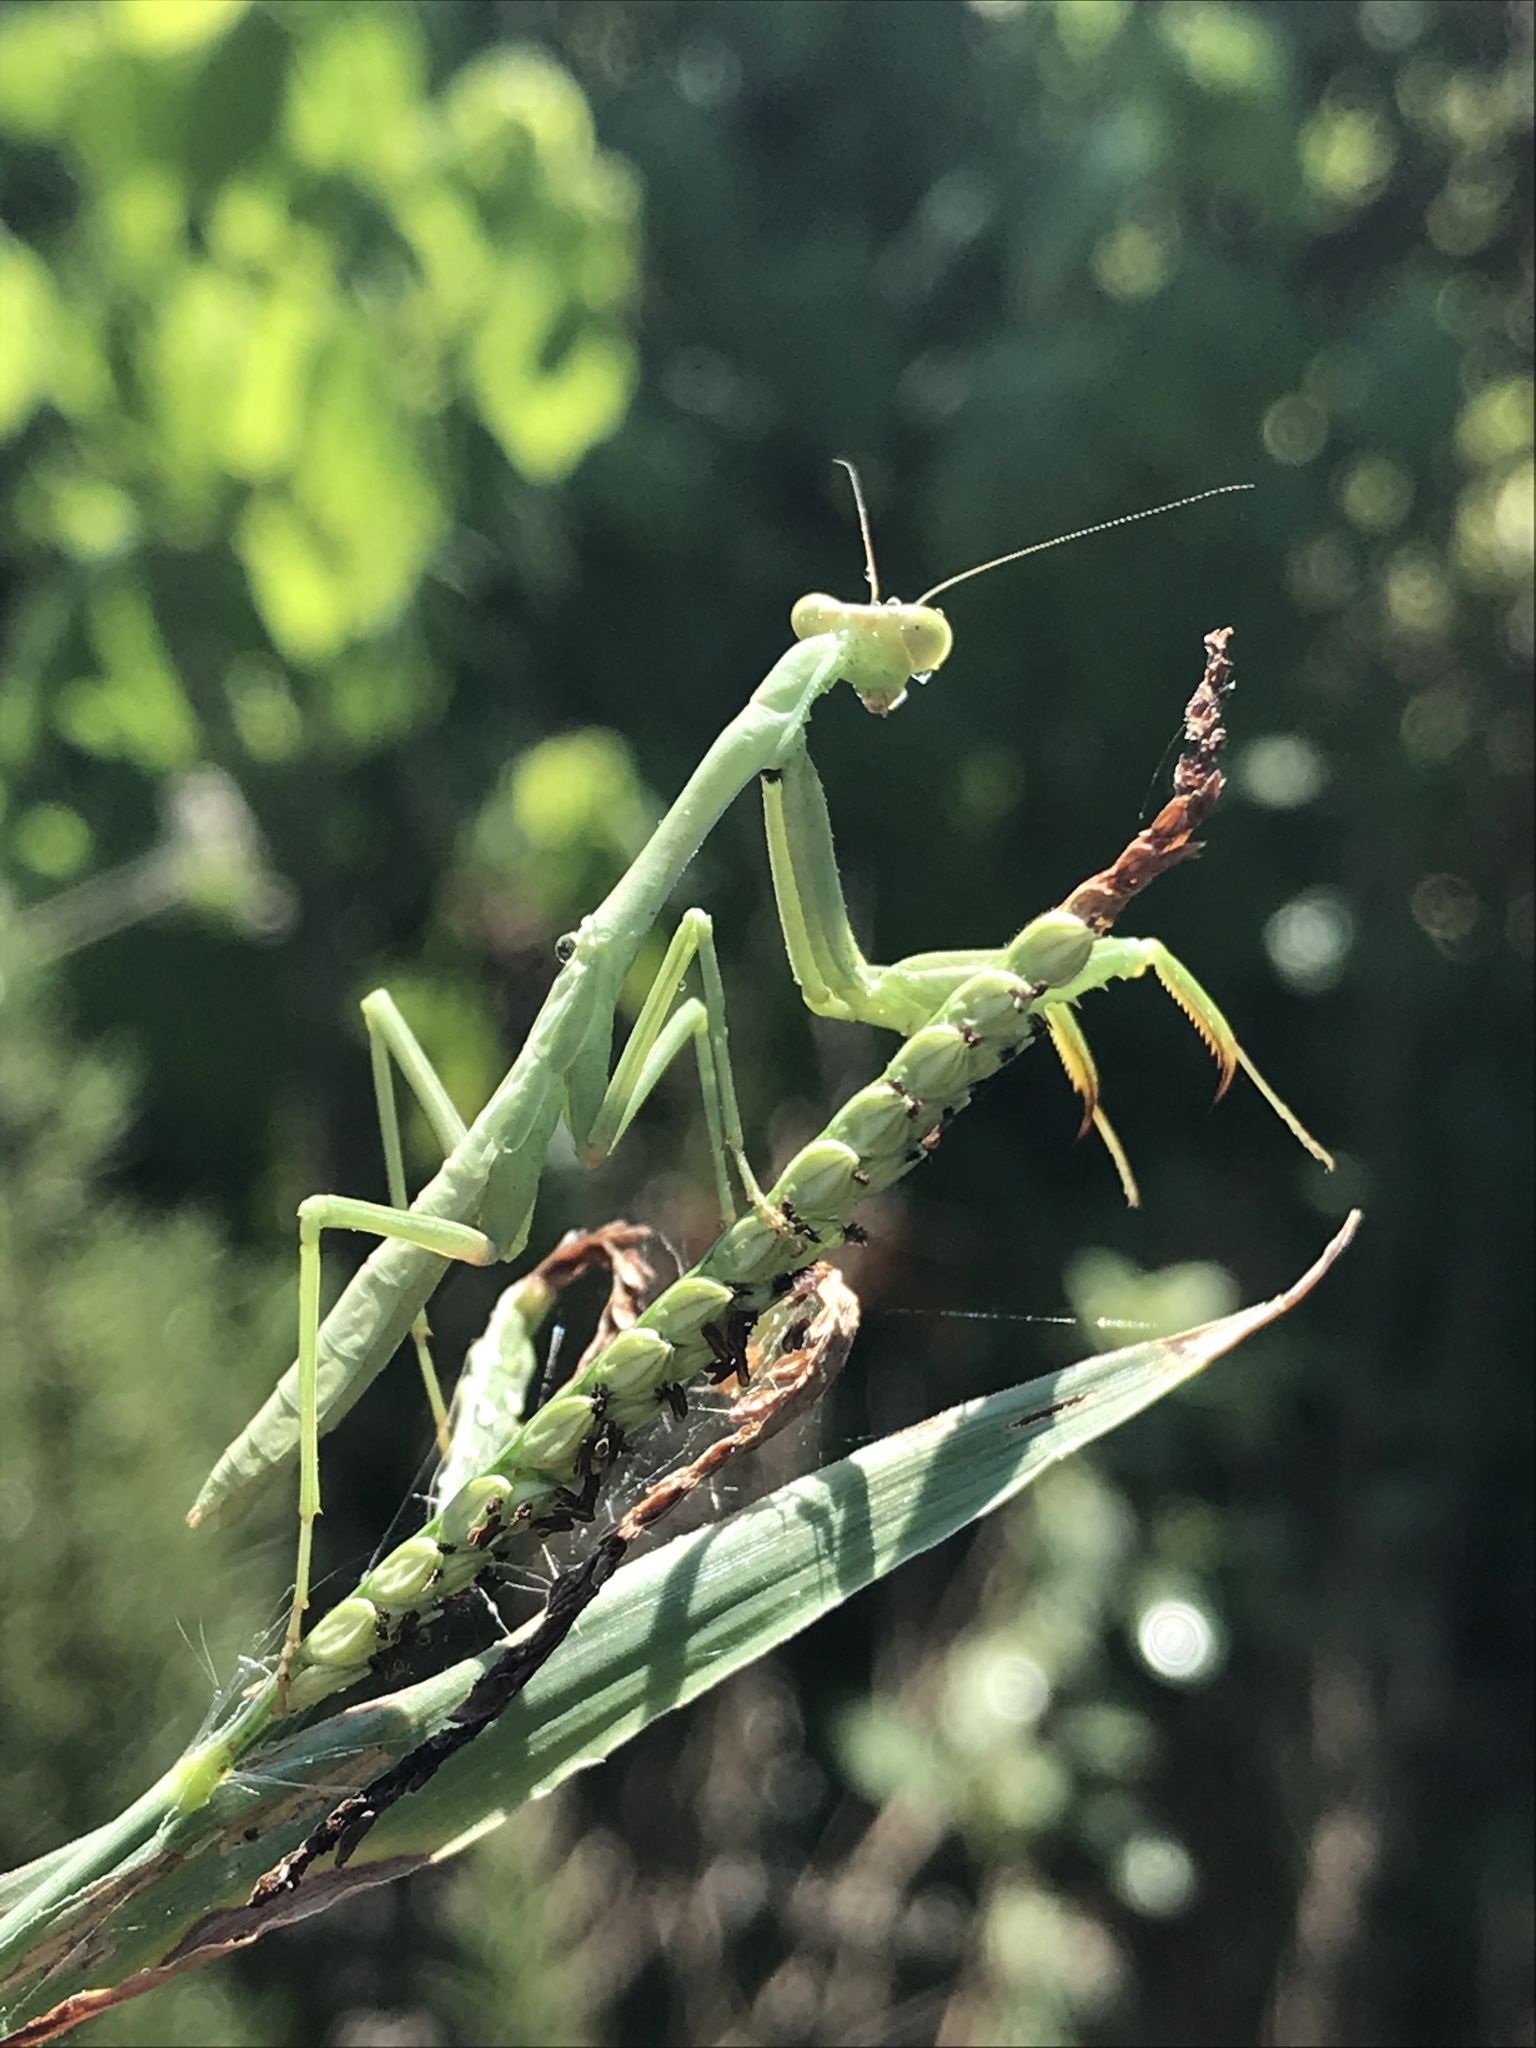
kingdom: Animalia
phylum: Arthropoda
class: Insecta
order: Mantodea
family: Mantidae
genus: Stagmomantis
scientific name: Stagmomantis carolina
